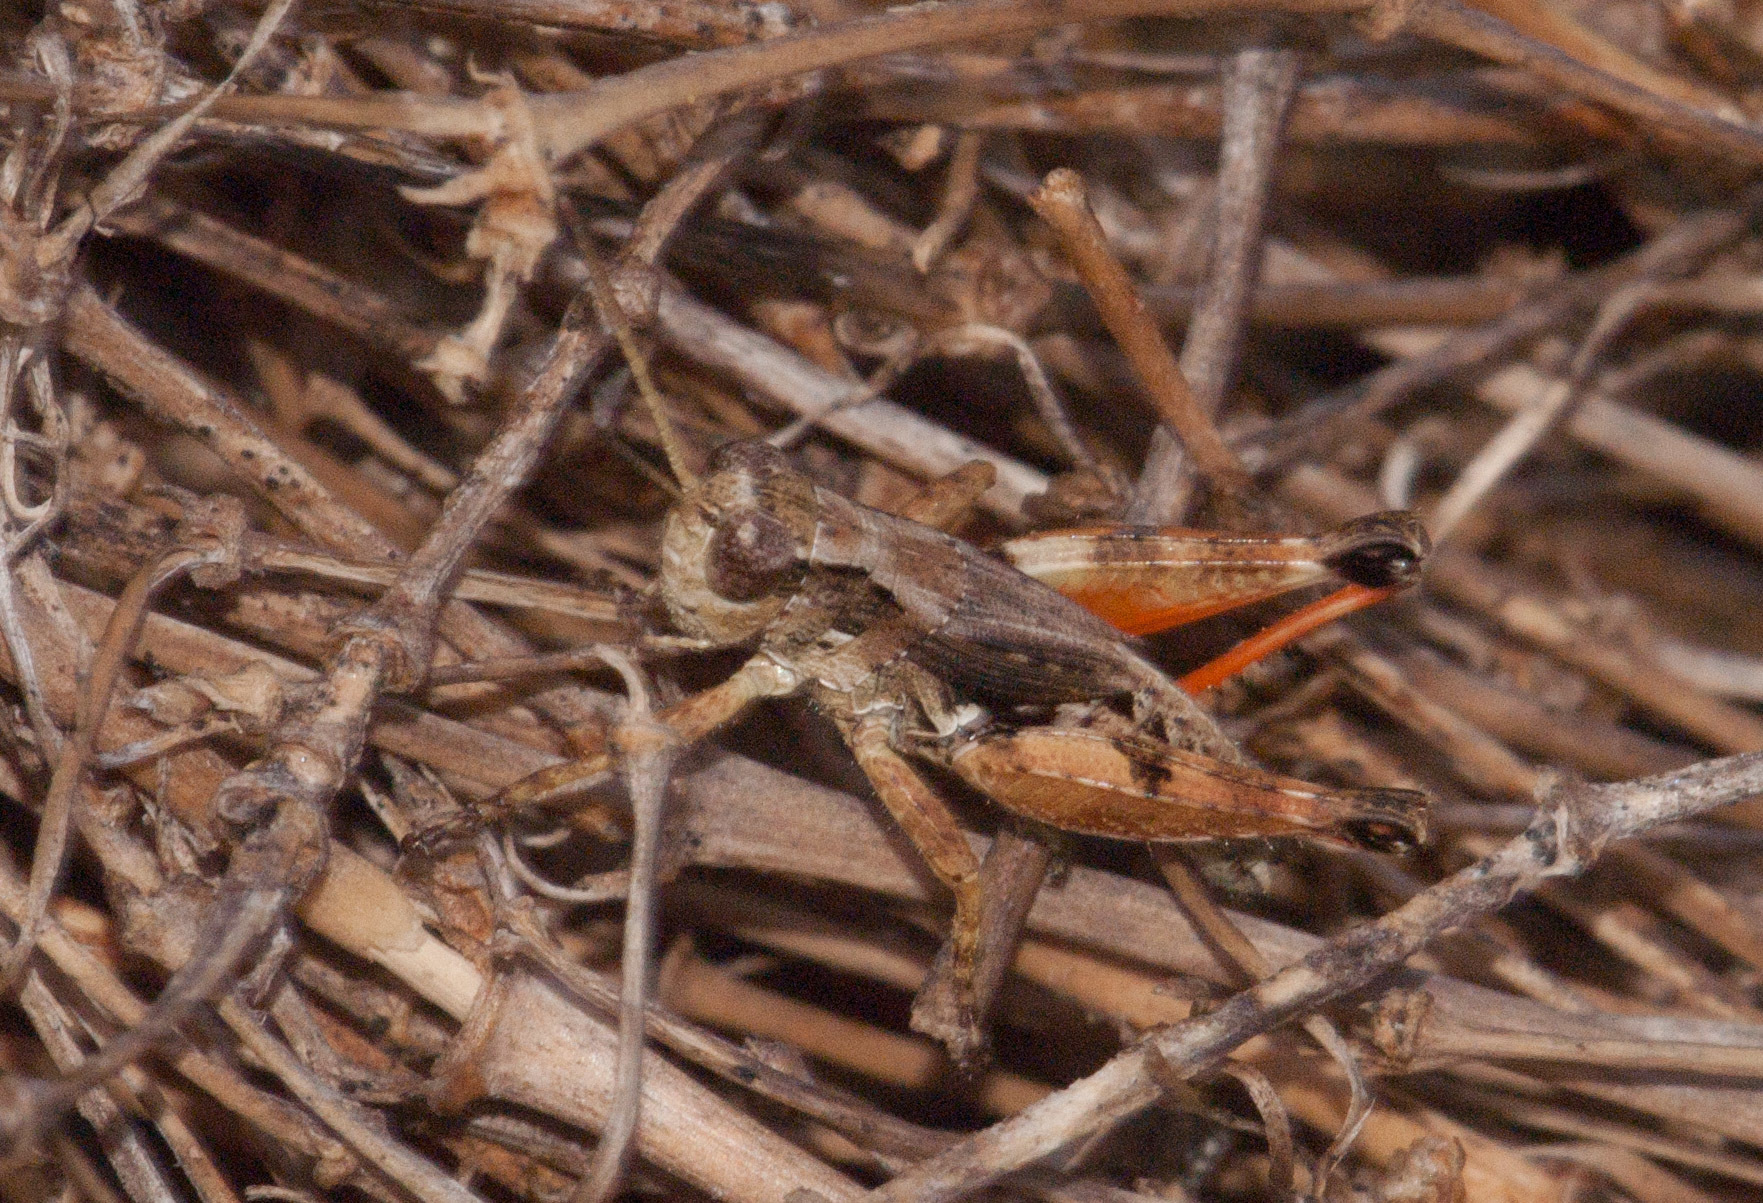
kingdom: Animalia
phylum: Arthropoda
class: Insecta
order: Orthoptera
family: Acrididae
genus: Phaulacridium
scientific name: Phaulacridium vittatum
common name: Wingless grasshopper
